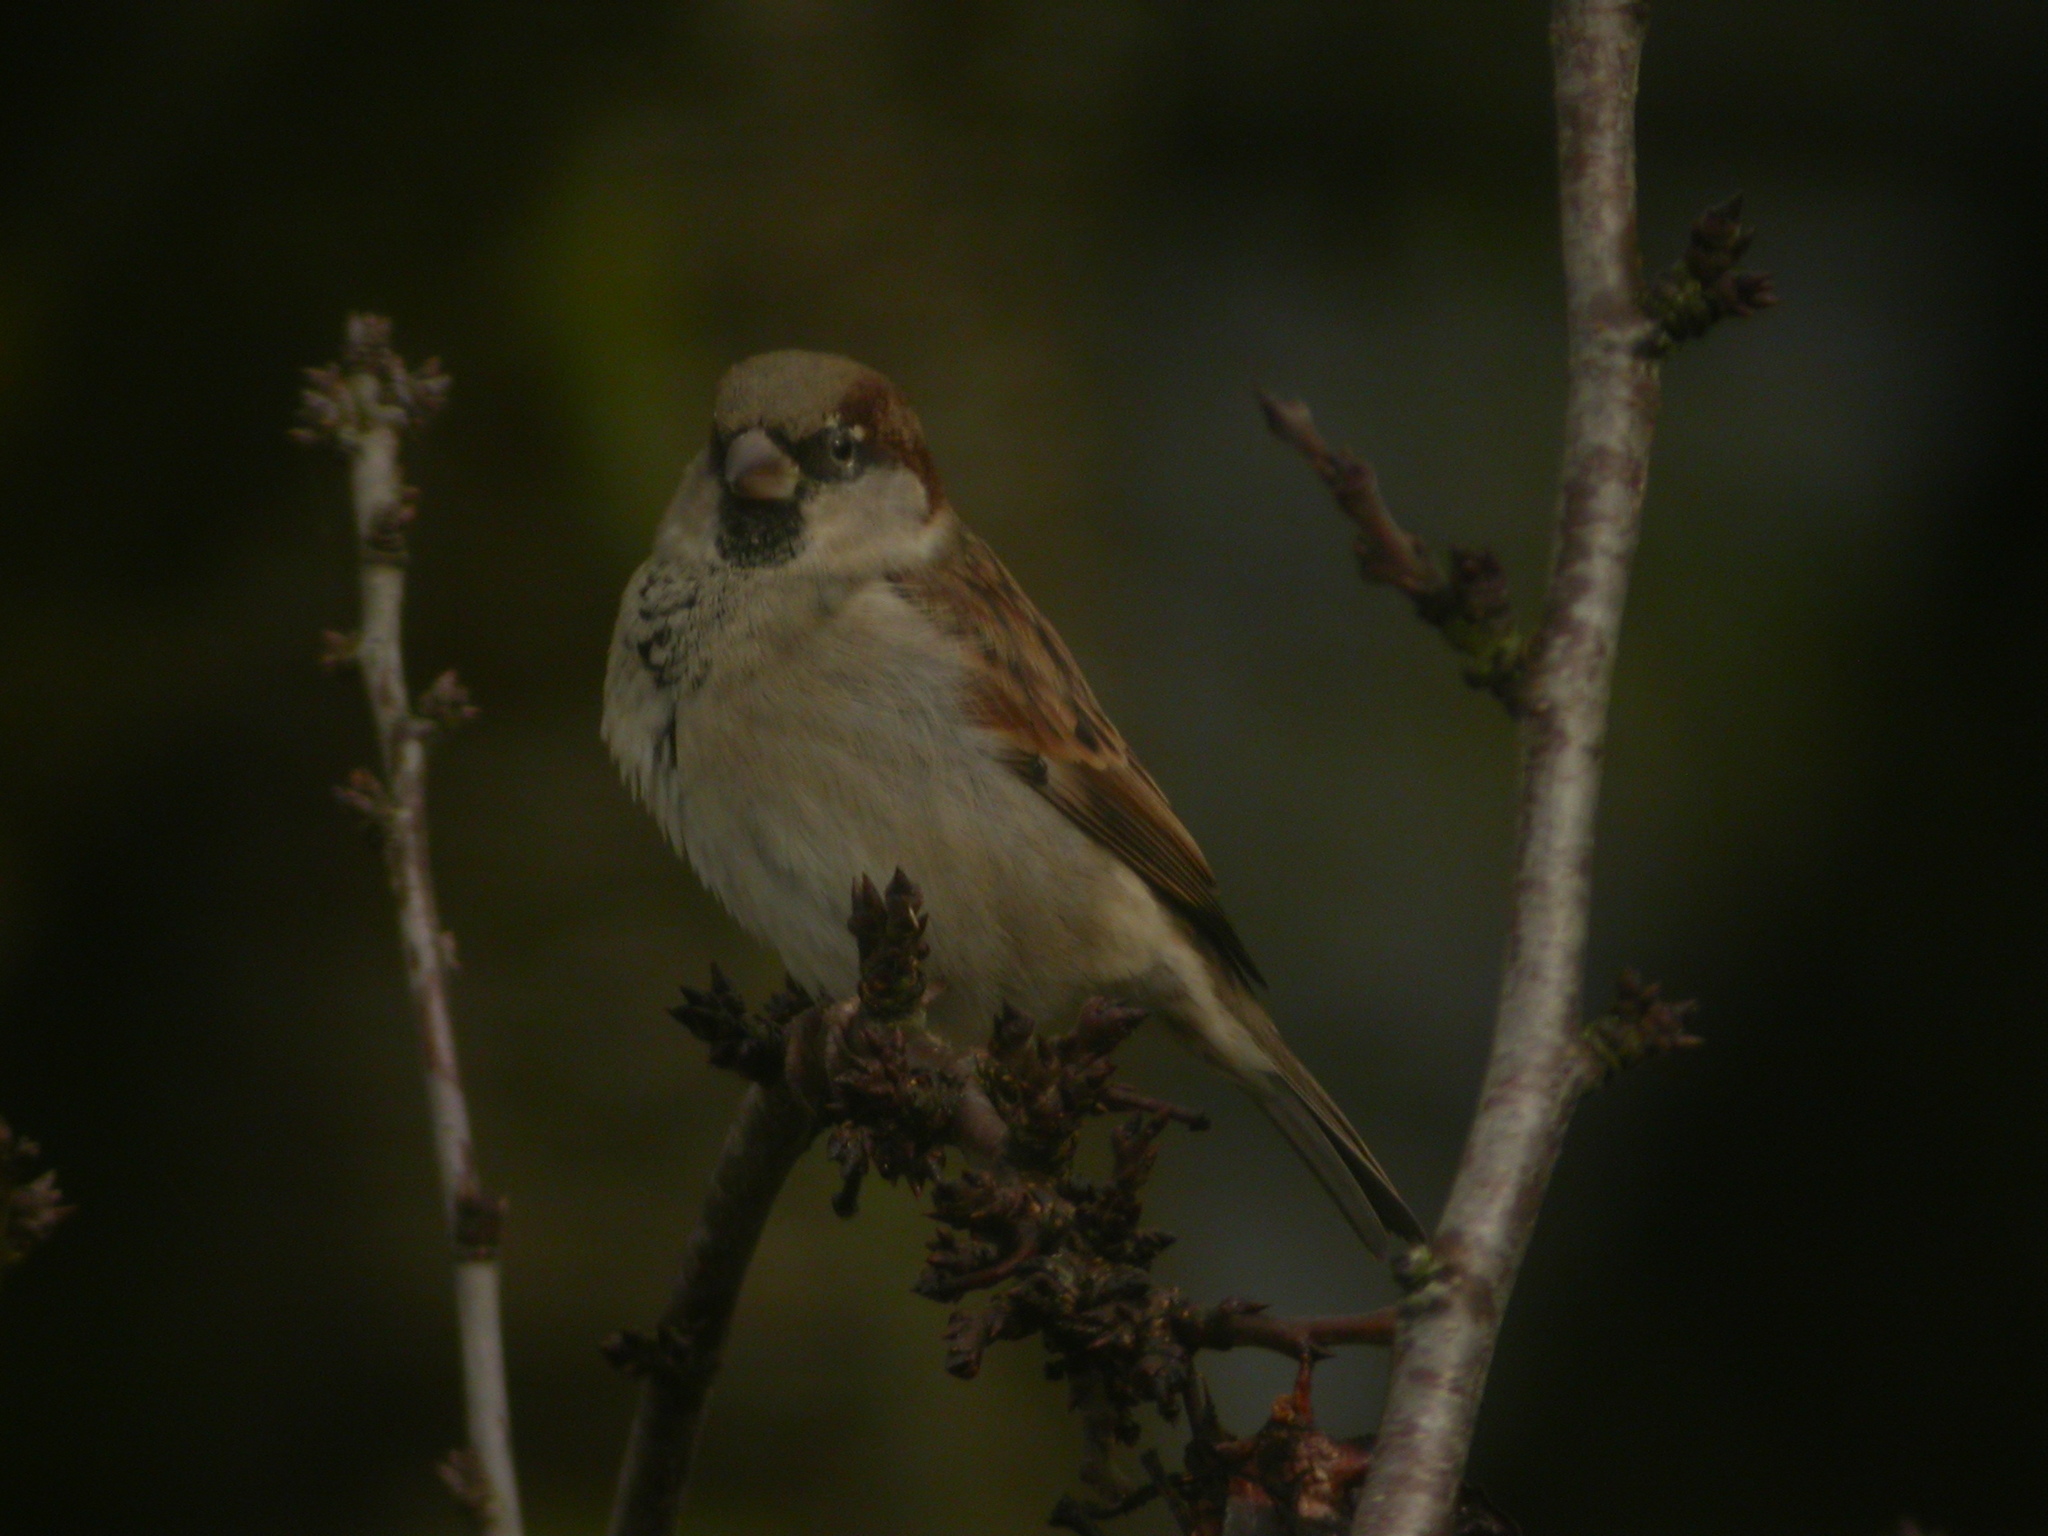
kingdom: Animalia
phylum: Chordata
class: Aves
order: Passeriformes
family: Passeridae
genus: Passer
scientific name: Passer domesticus
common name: House sparrow
